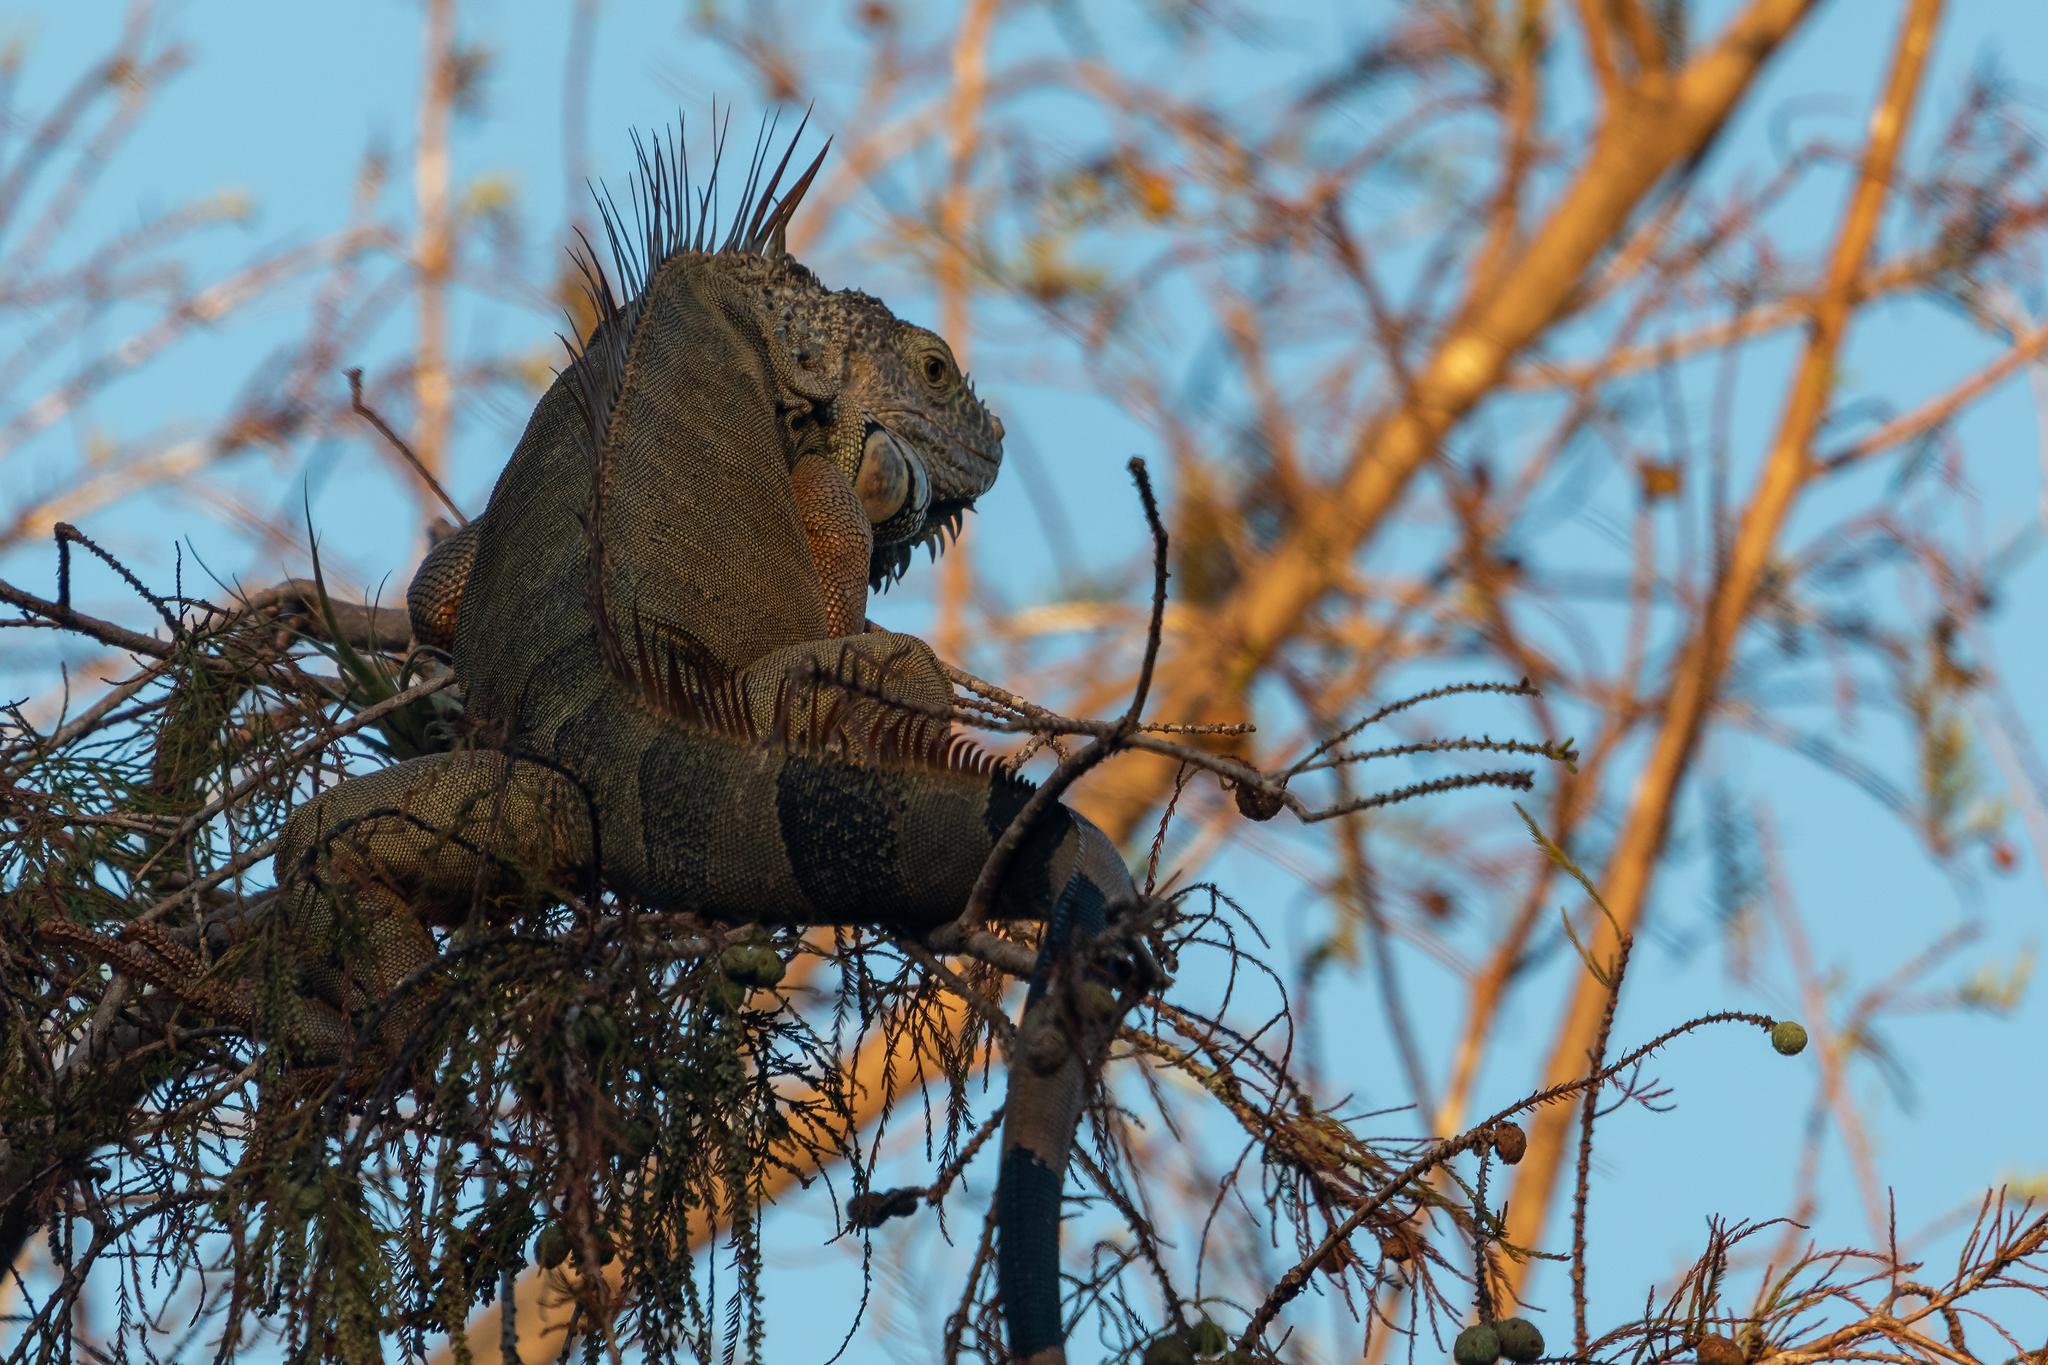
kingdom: Animalia
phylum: Chordata
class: Squamata
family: Iguanidae
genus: Iguana
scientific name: Iguana iguana
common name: Green iguana
